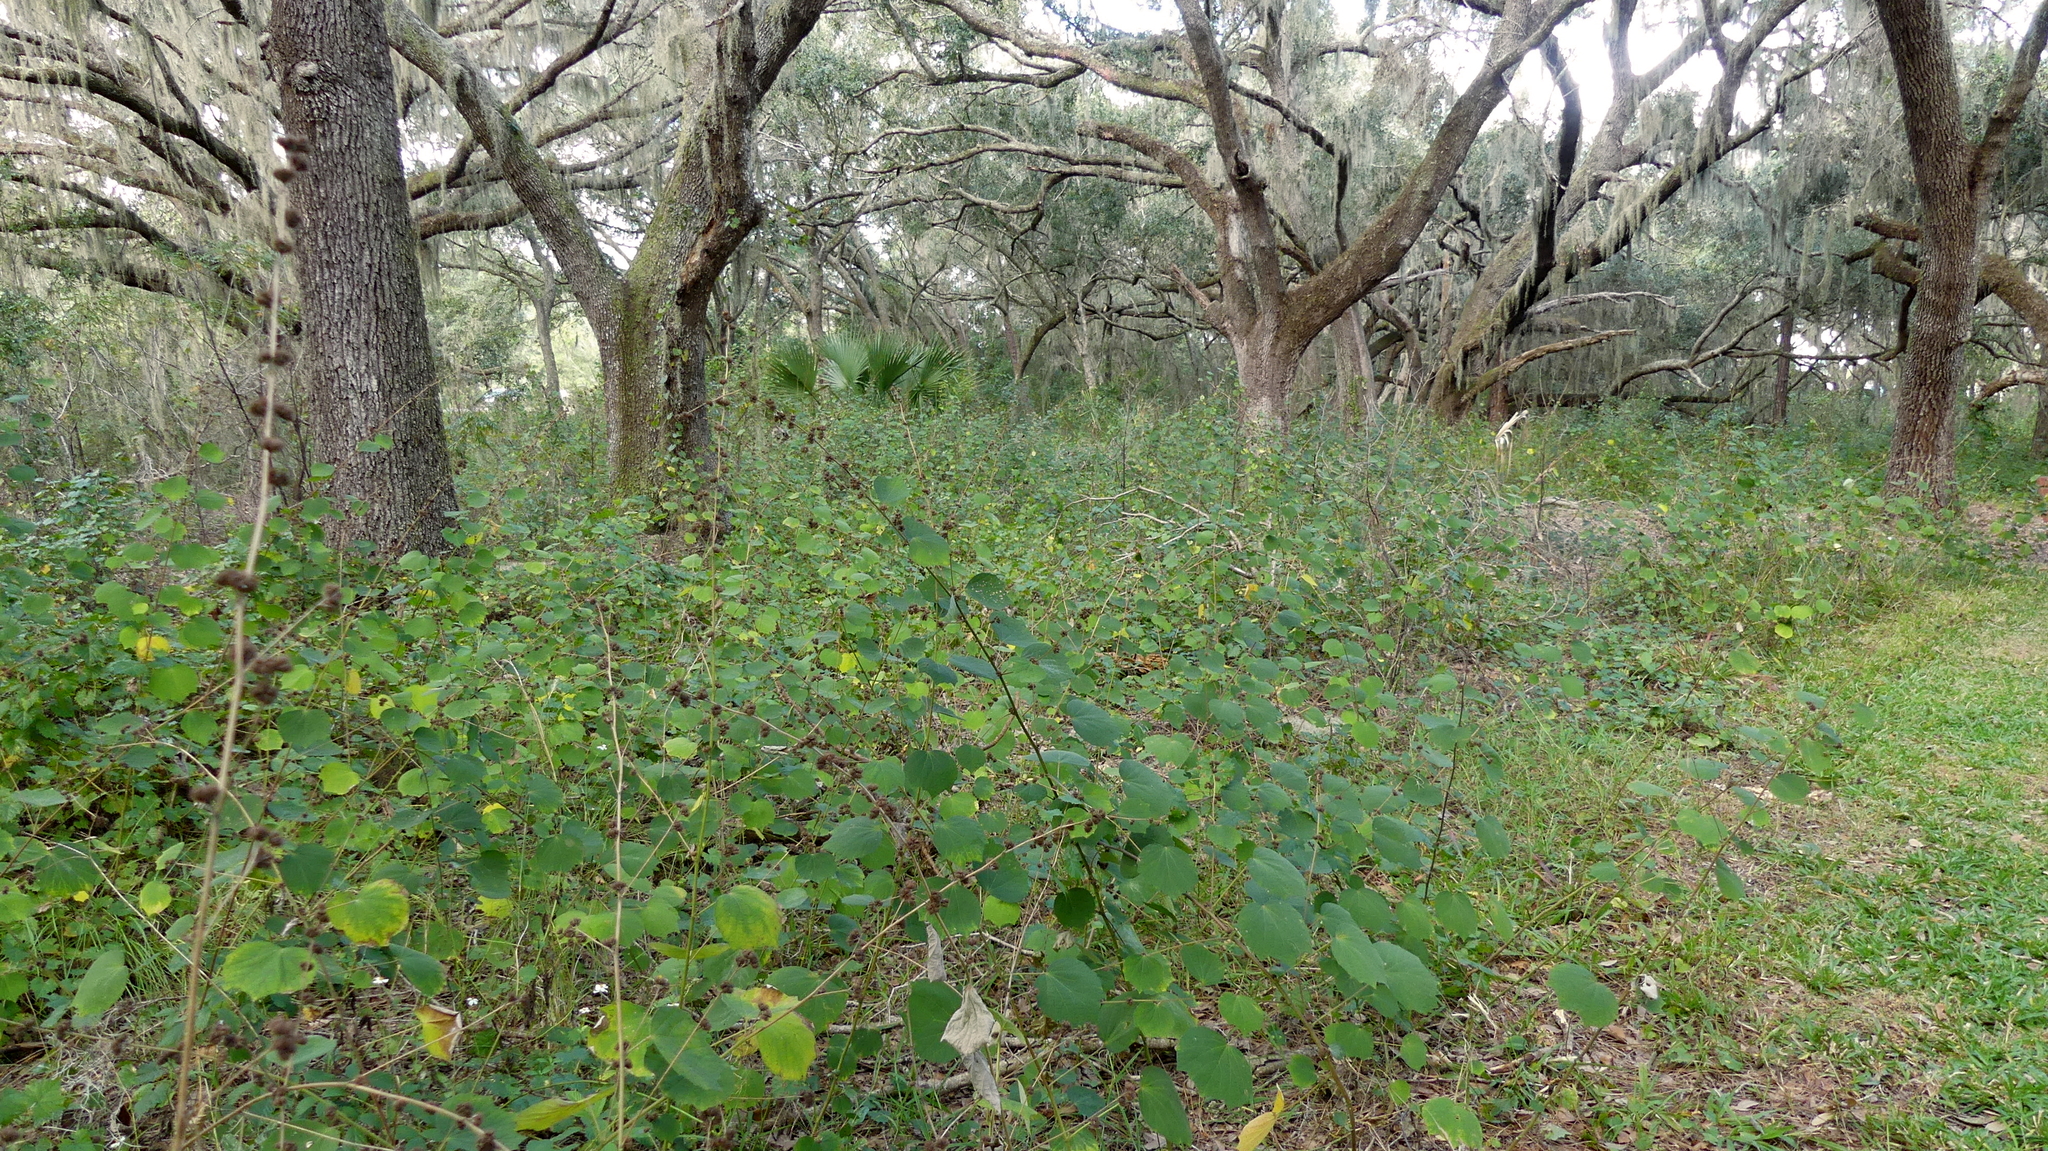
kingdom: Plantae
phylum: Tracheophyta
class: Magnoliopsida
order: Malvales
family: Malvaceae
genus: Urena
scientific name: Urena lobata
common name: Caesarweed
